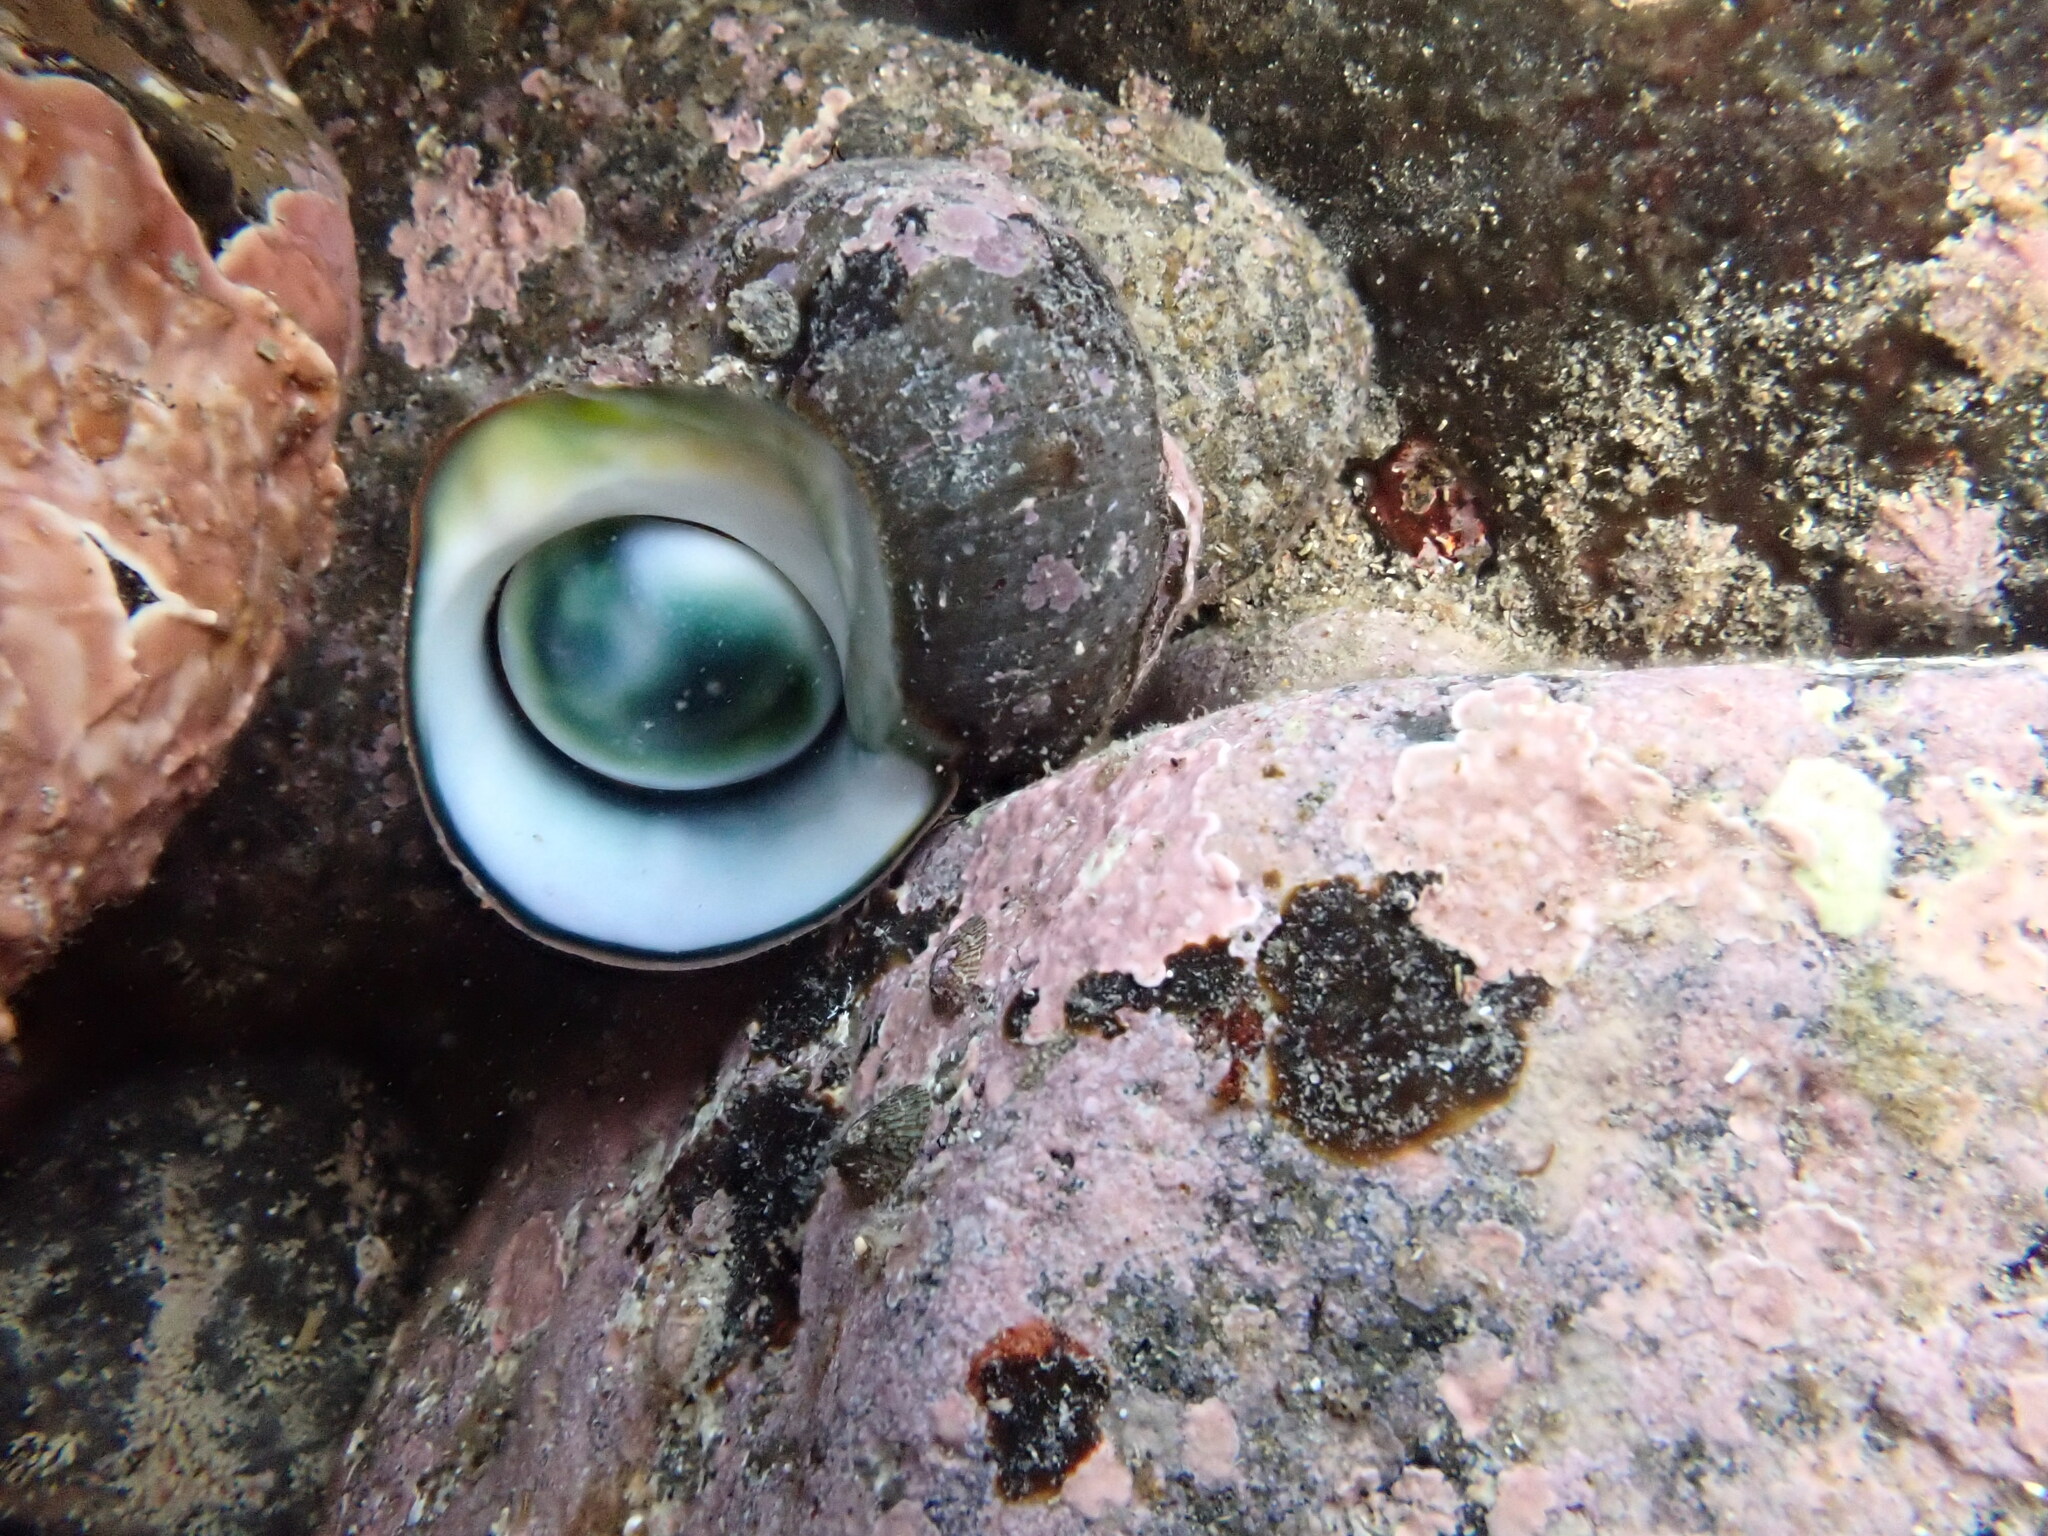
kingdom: Animalia
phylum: Mollusca
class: Gastropoda
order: Trochida
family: Turbinidae
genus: Lunella
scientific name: Lunella smaragda
